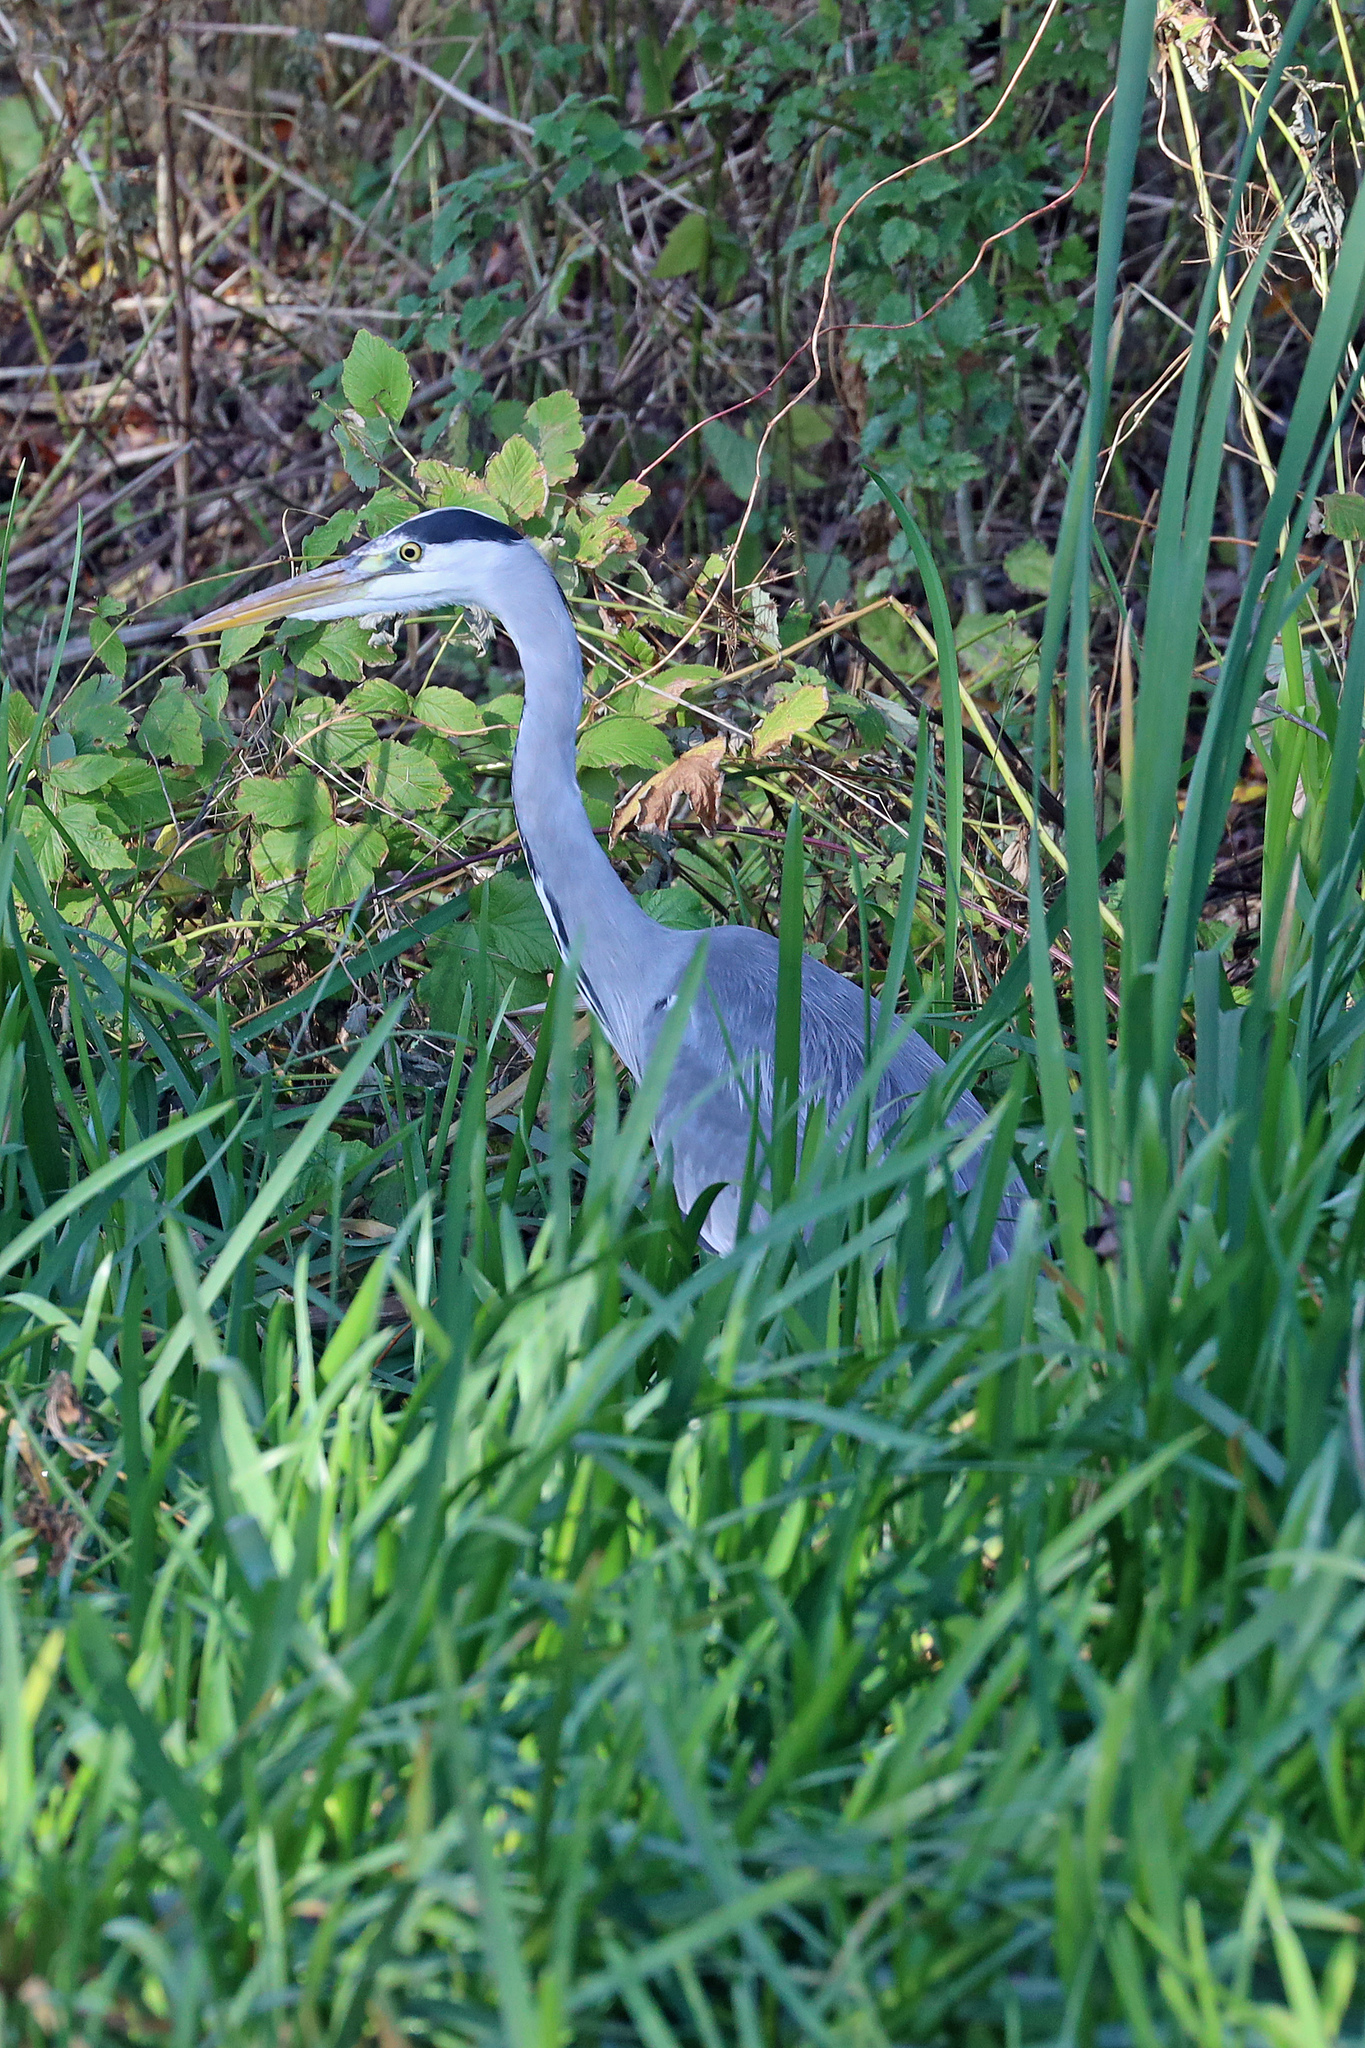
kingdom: Animalia
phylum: Chordata
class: Aves
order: Pelecaniformes
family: Ardeidae
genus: Ardea
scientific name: Ardea cinerea
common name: Grey heron
